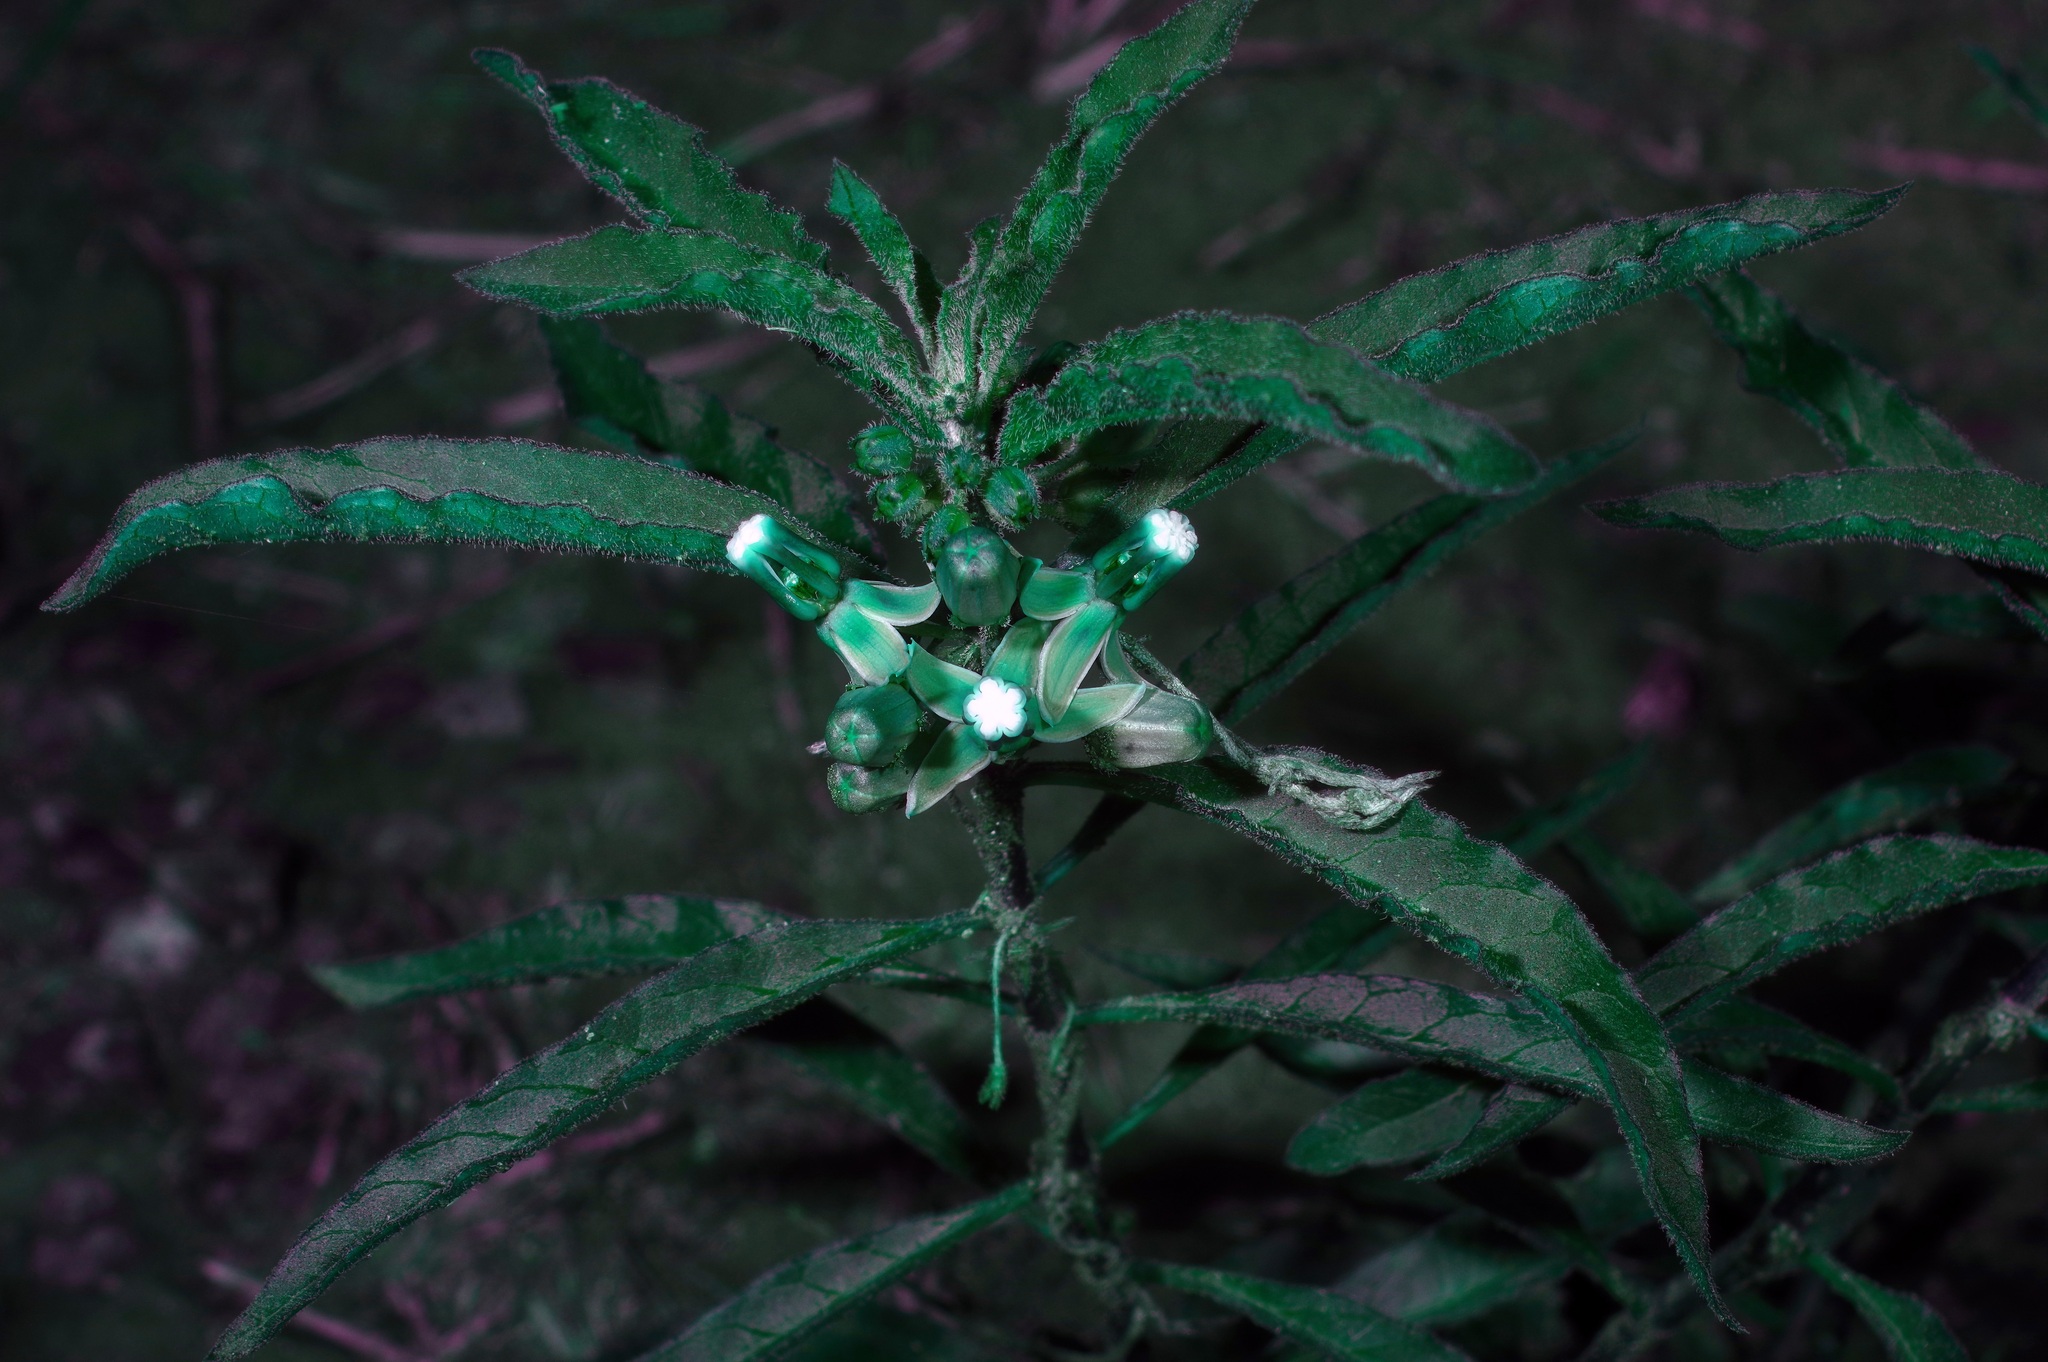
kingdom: Plantae
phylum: Tracheophyta
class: Magnoliopsida
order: Gentianales
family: Apocynaceae
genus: Asclepias
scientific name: Asclepias emoryi
